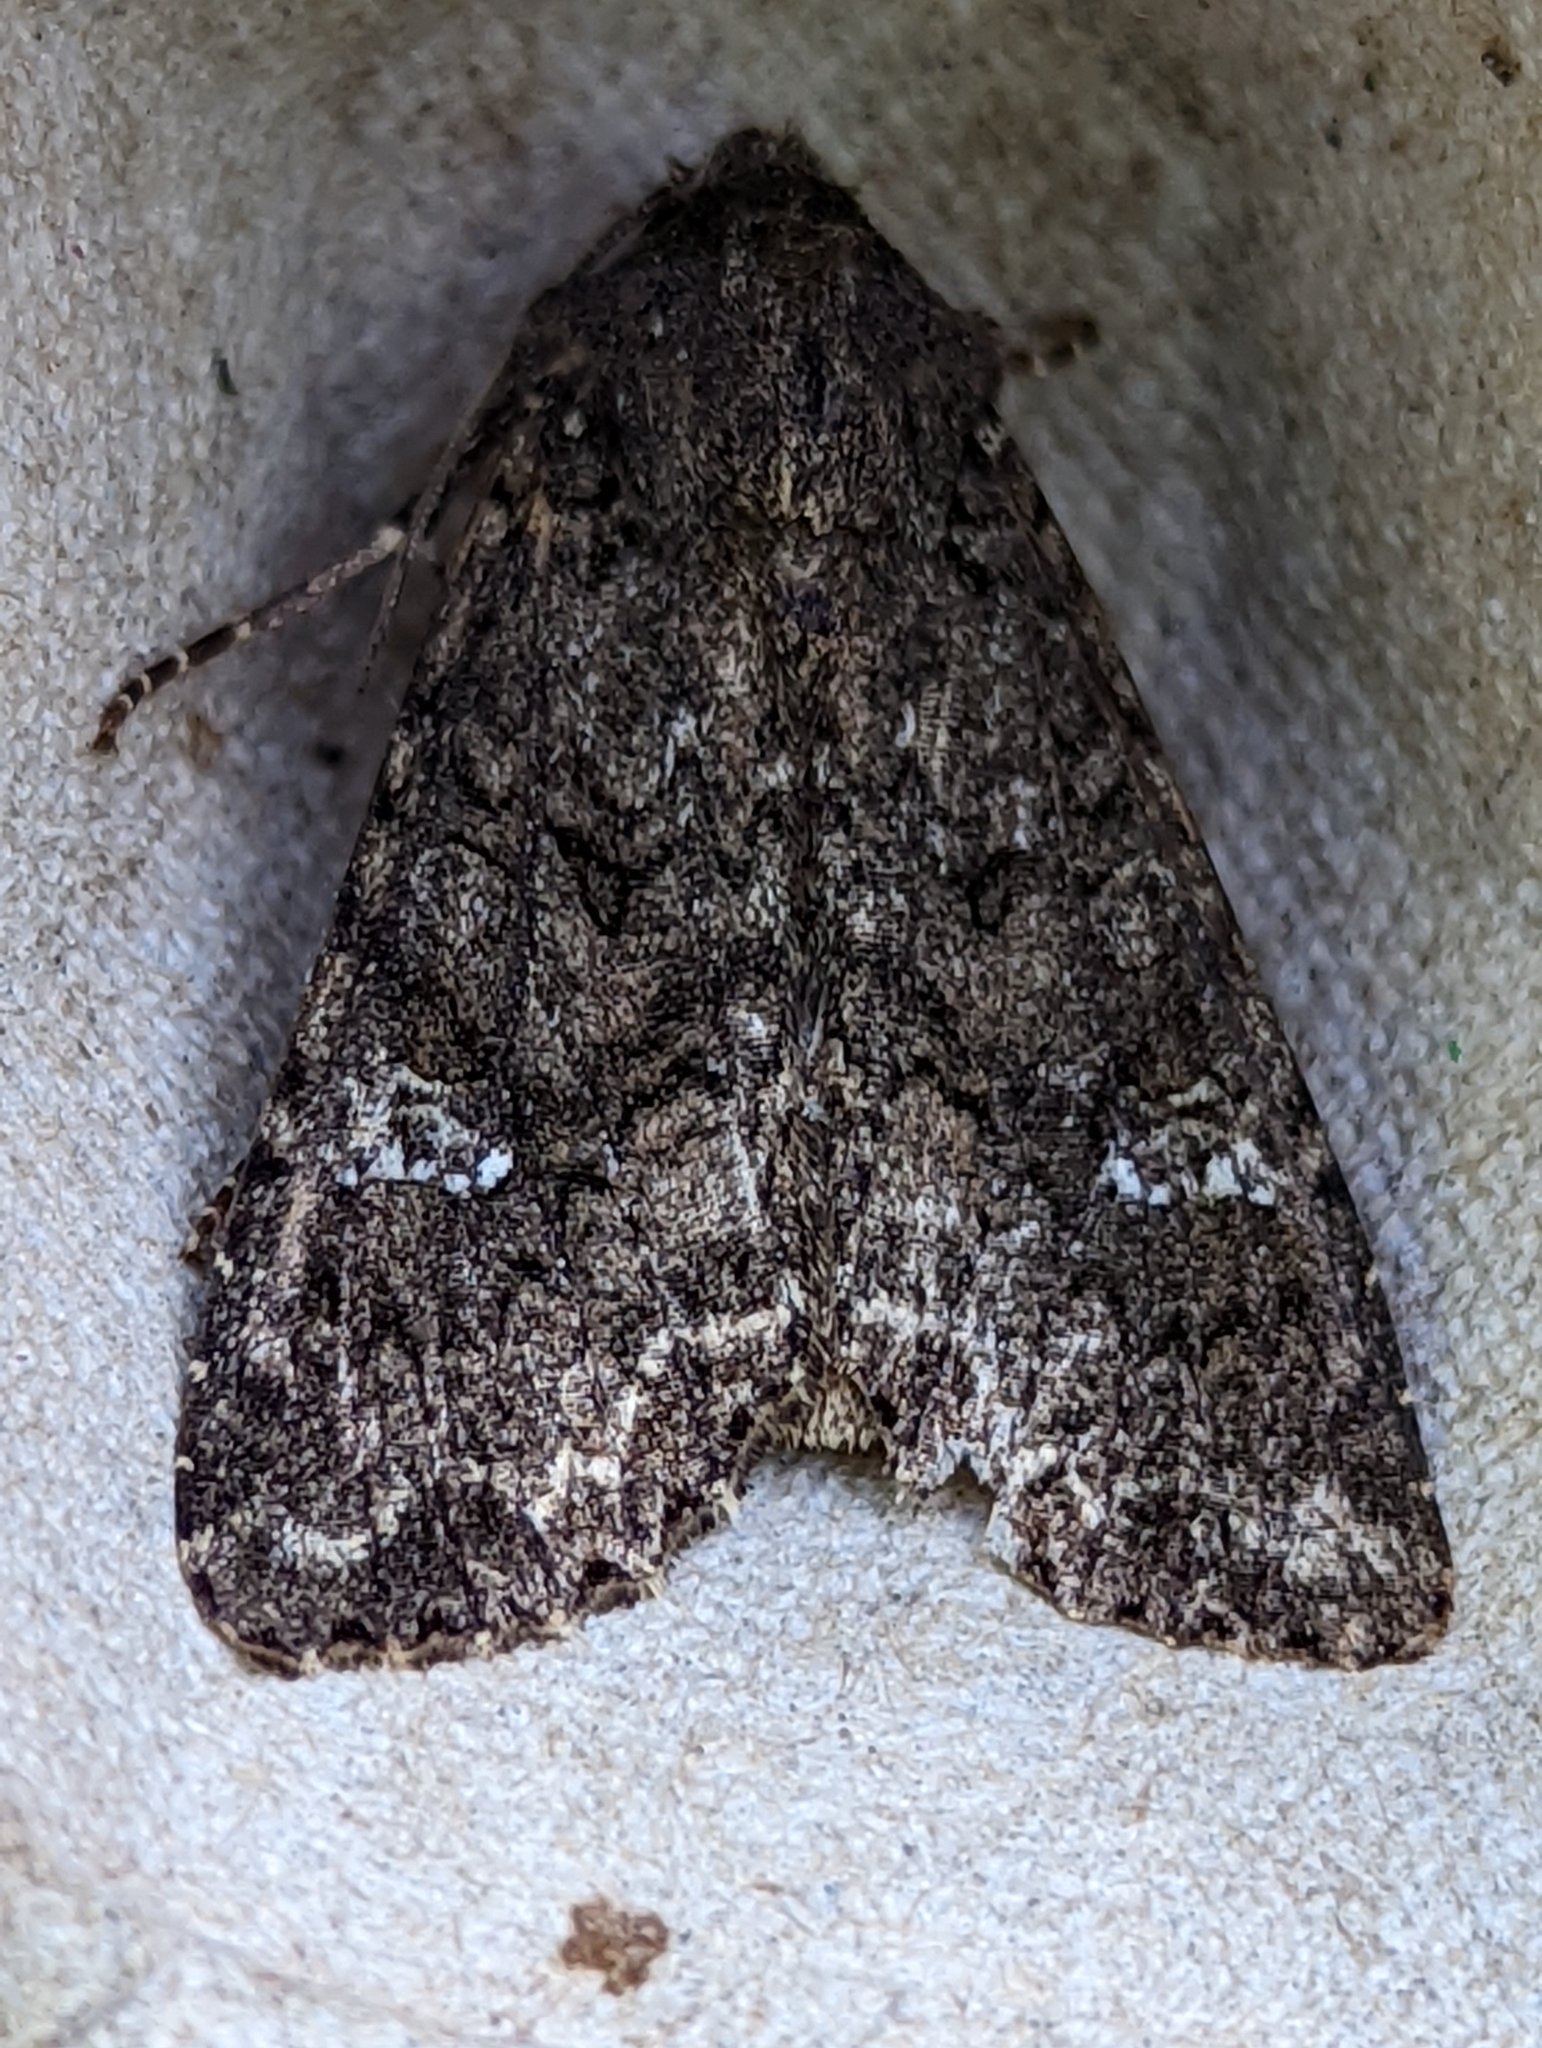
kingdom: Animalia
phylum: Arthropoda
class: Insecta
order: Lepidoptera
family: Noctuidae
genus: Mamestra
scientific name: Mamestra brassicae
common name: Cabbage moth
